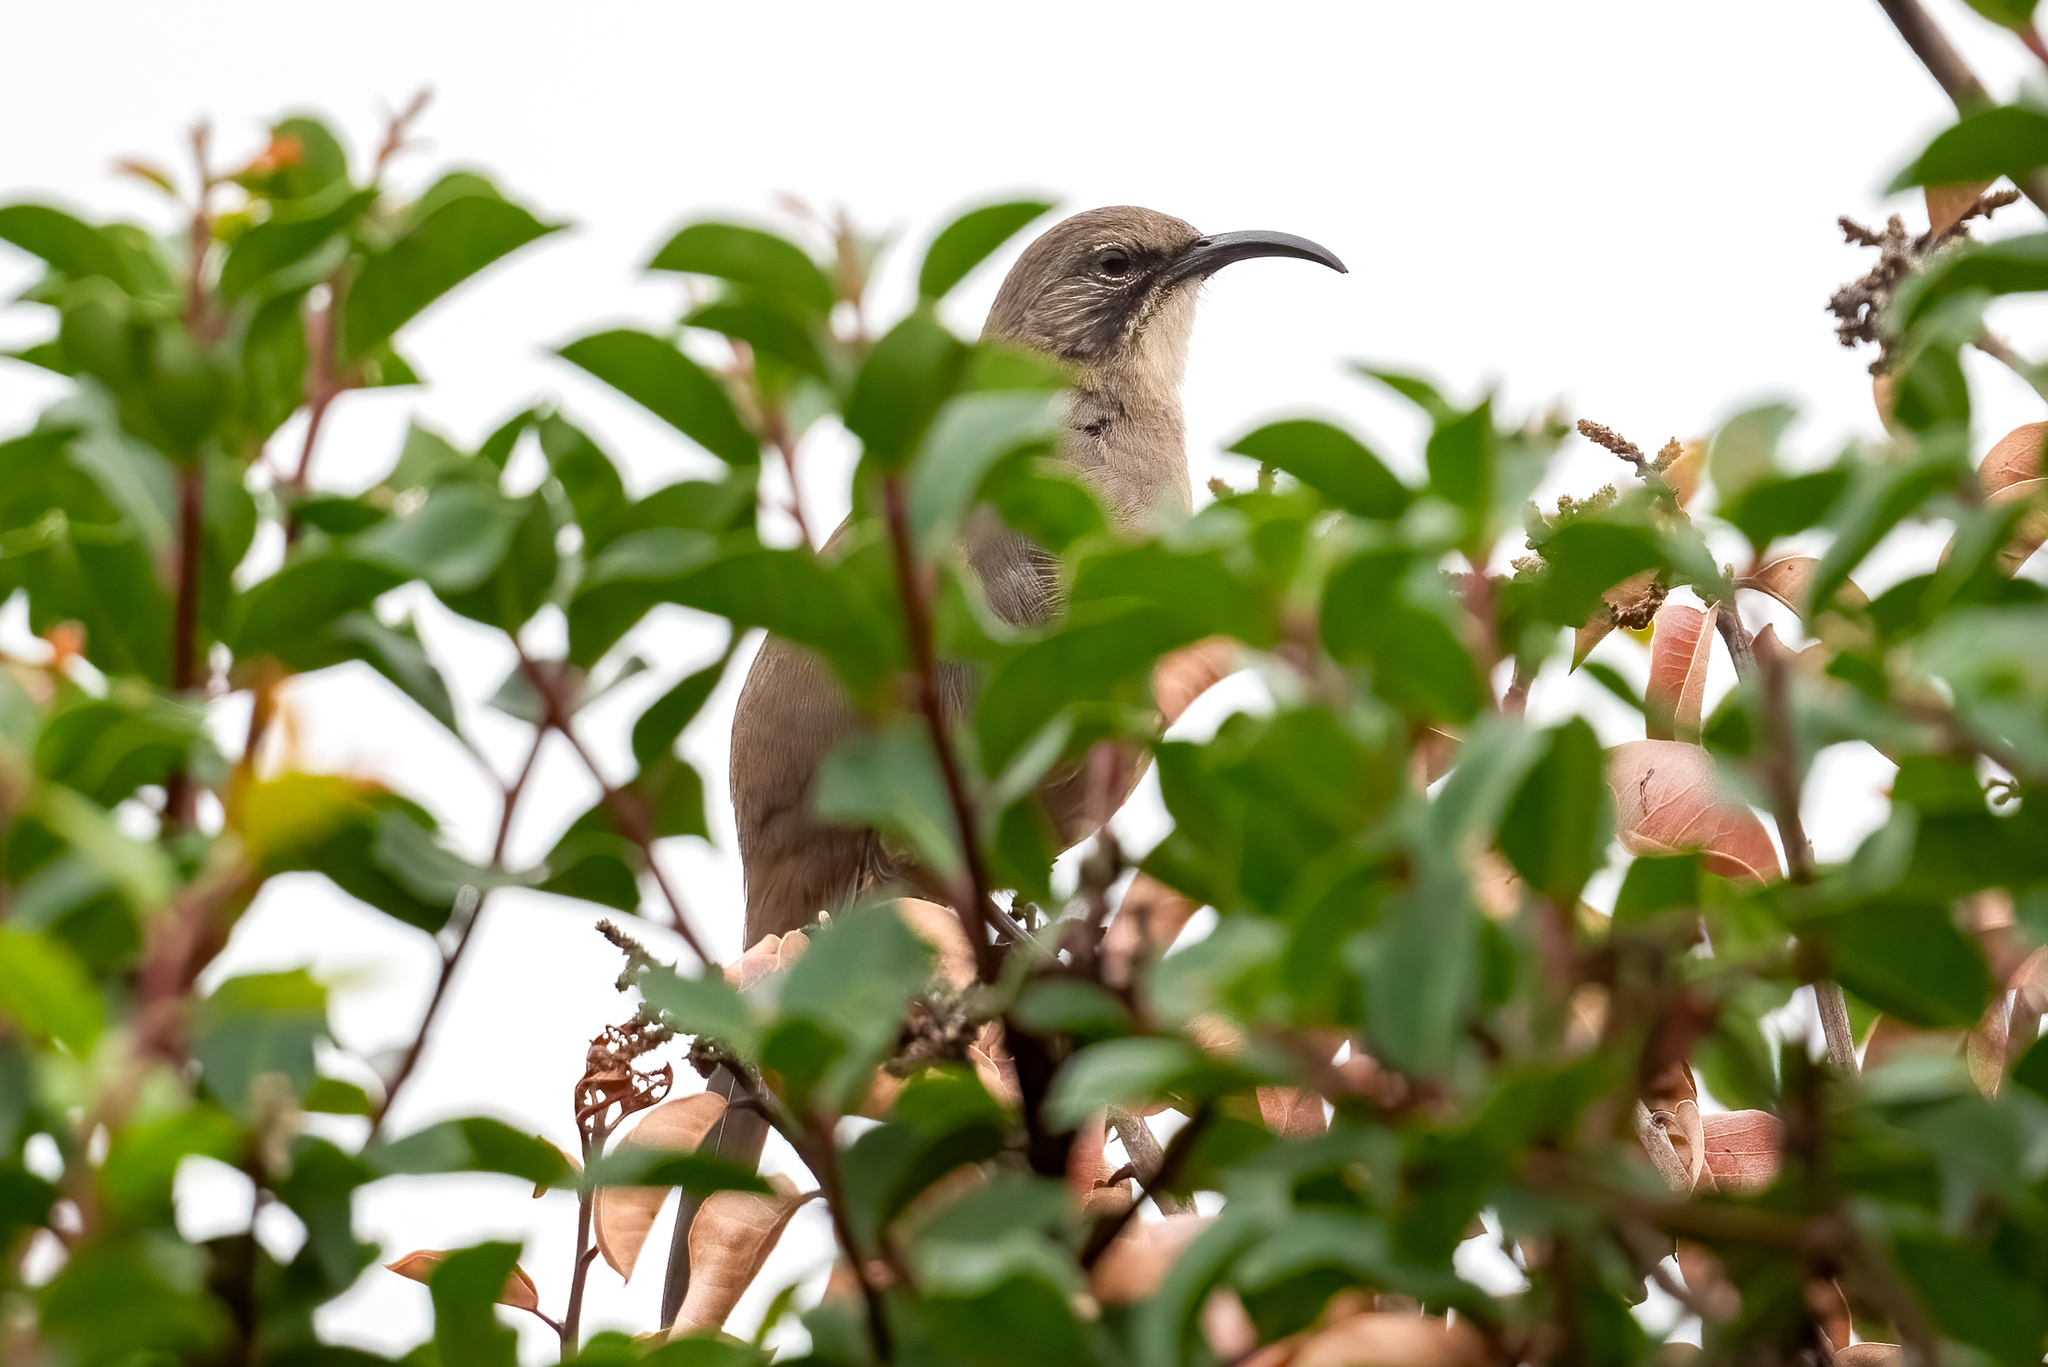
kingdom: Animalia
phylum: Chordata
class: Aves
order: Passeriformes
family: Mimidae
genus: Toxostoma
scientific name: Toxostoma redivivum
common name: California thrasher
